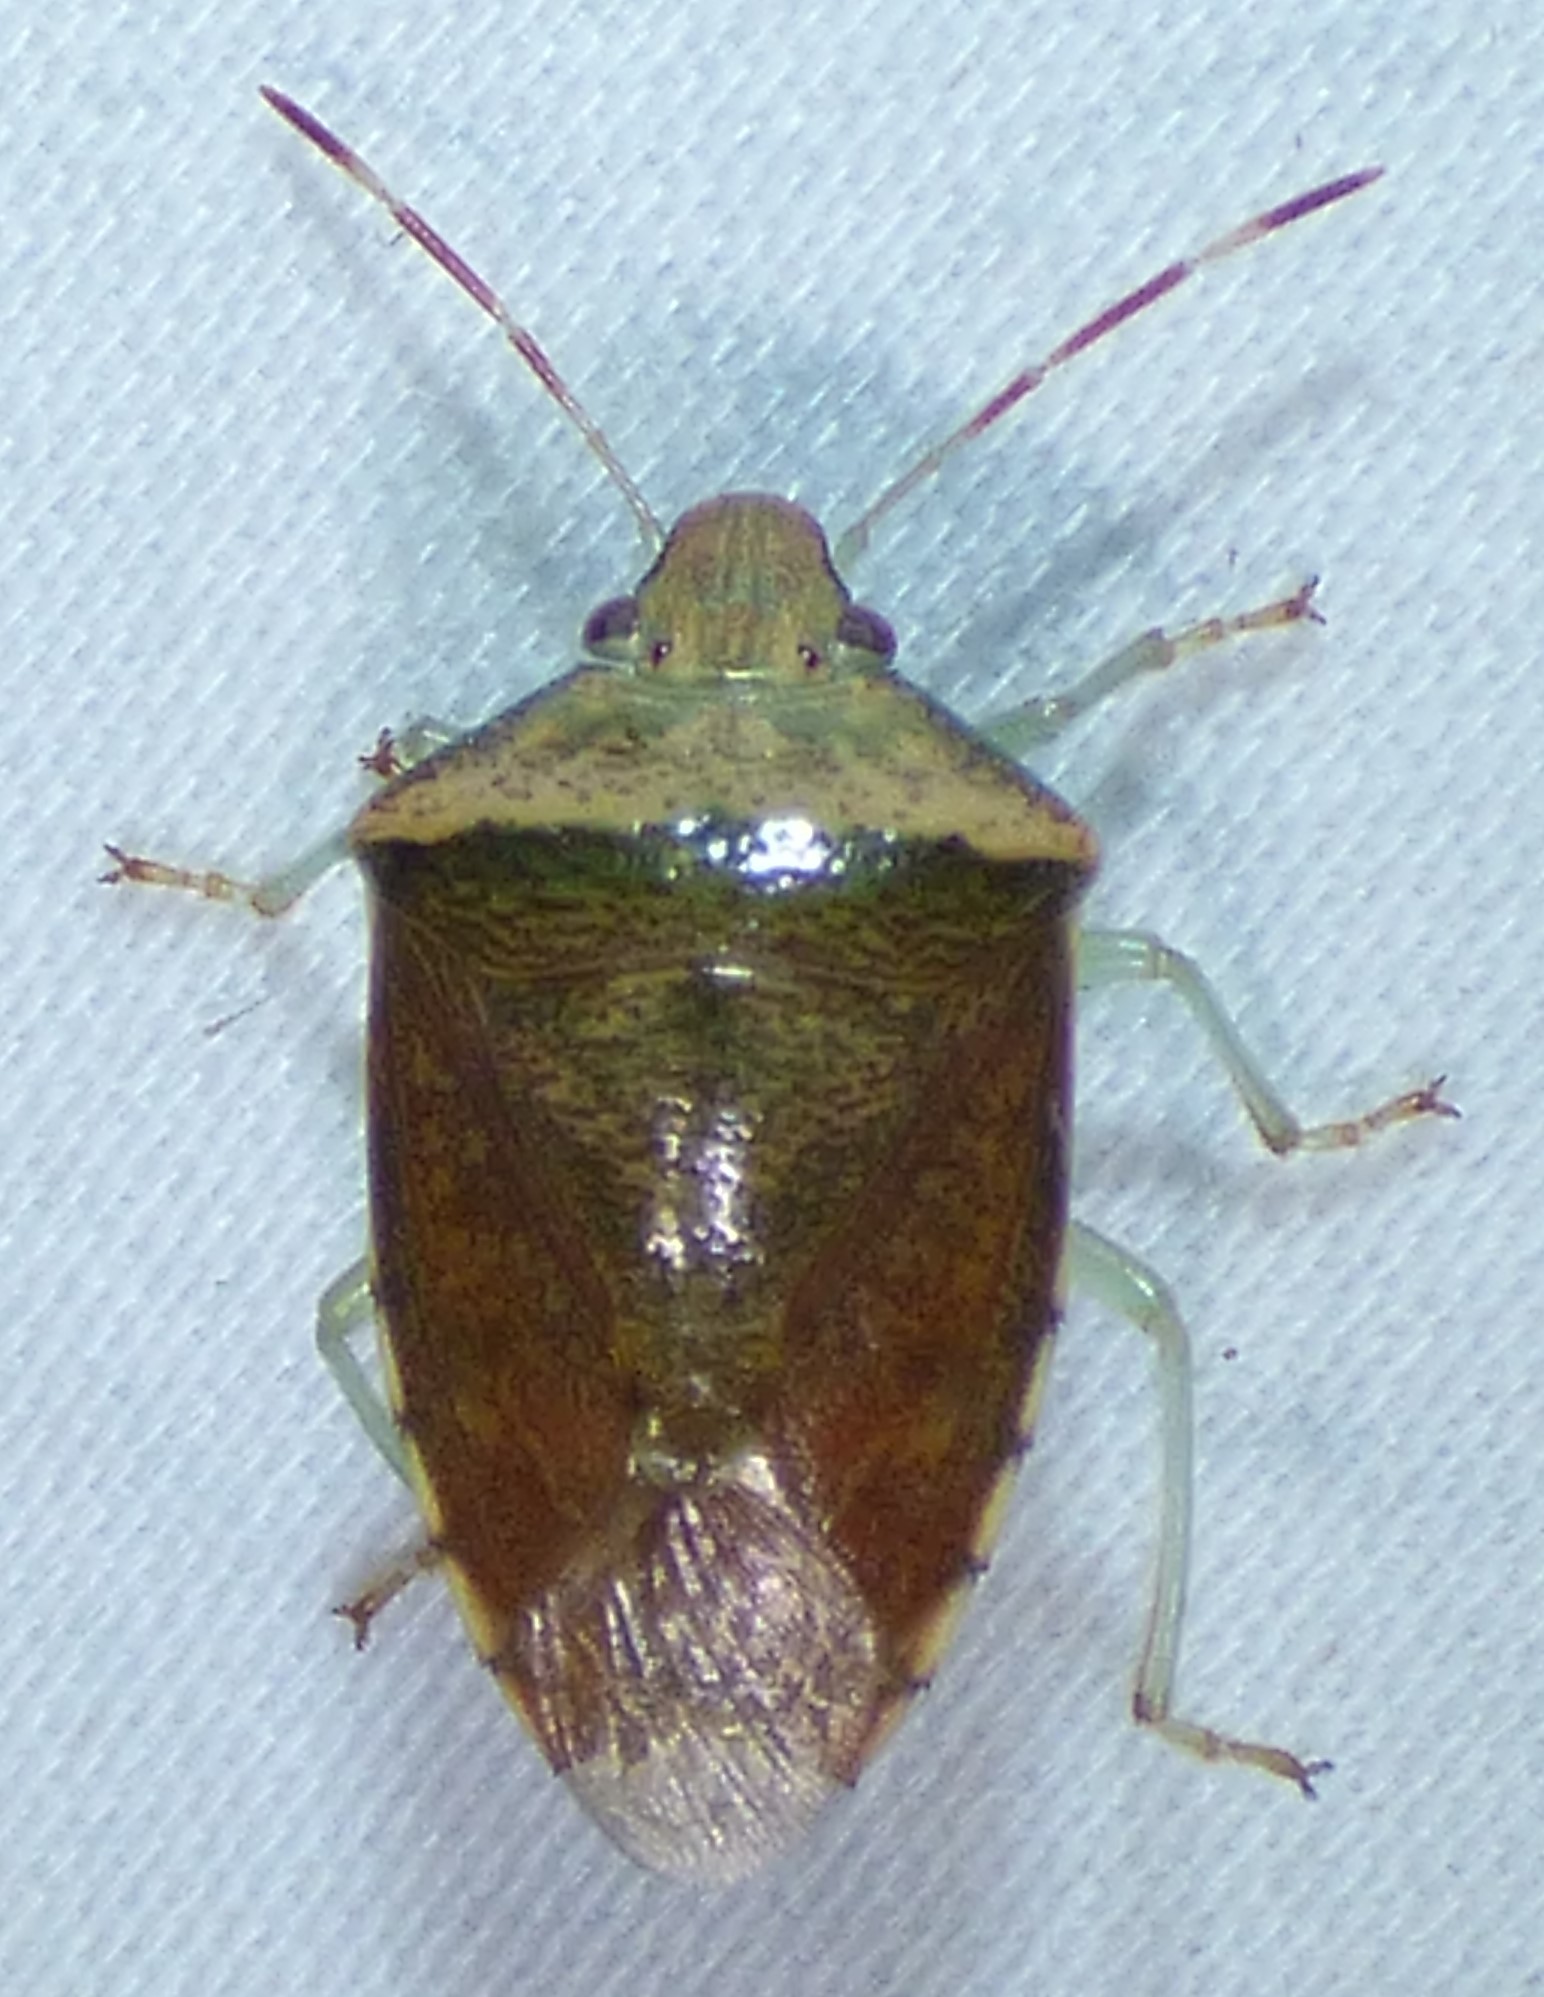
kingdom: Animalia
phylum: Arthropoda
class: Insecta
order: Hemiptera
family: Pentatomidae
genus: Banasa
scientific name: Banasa calva
